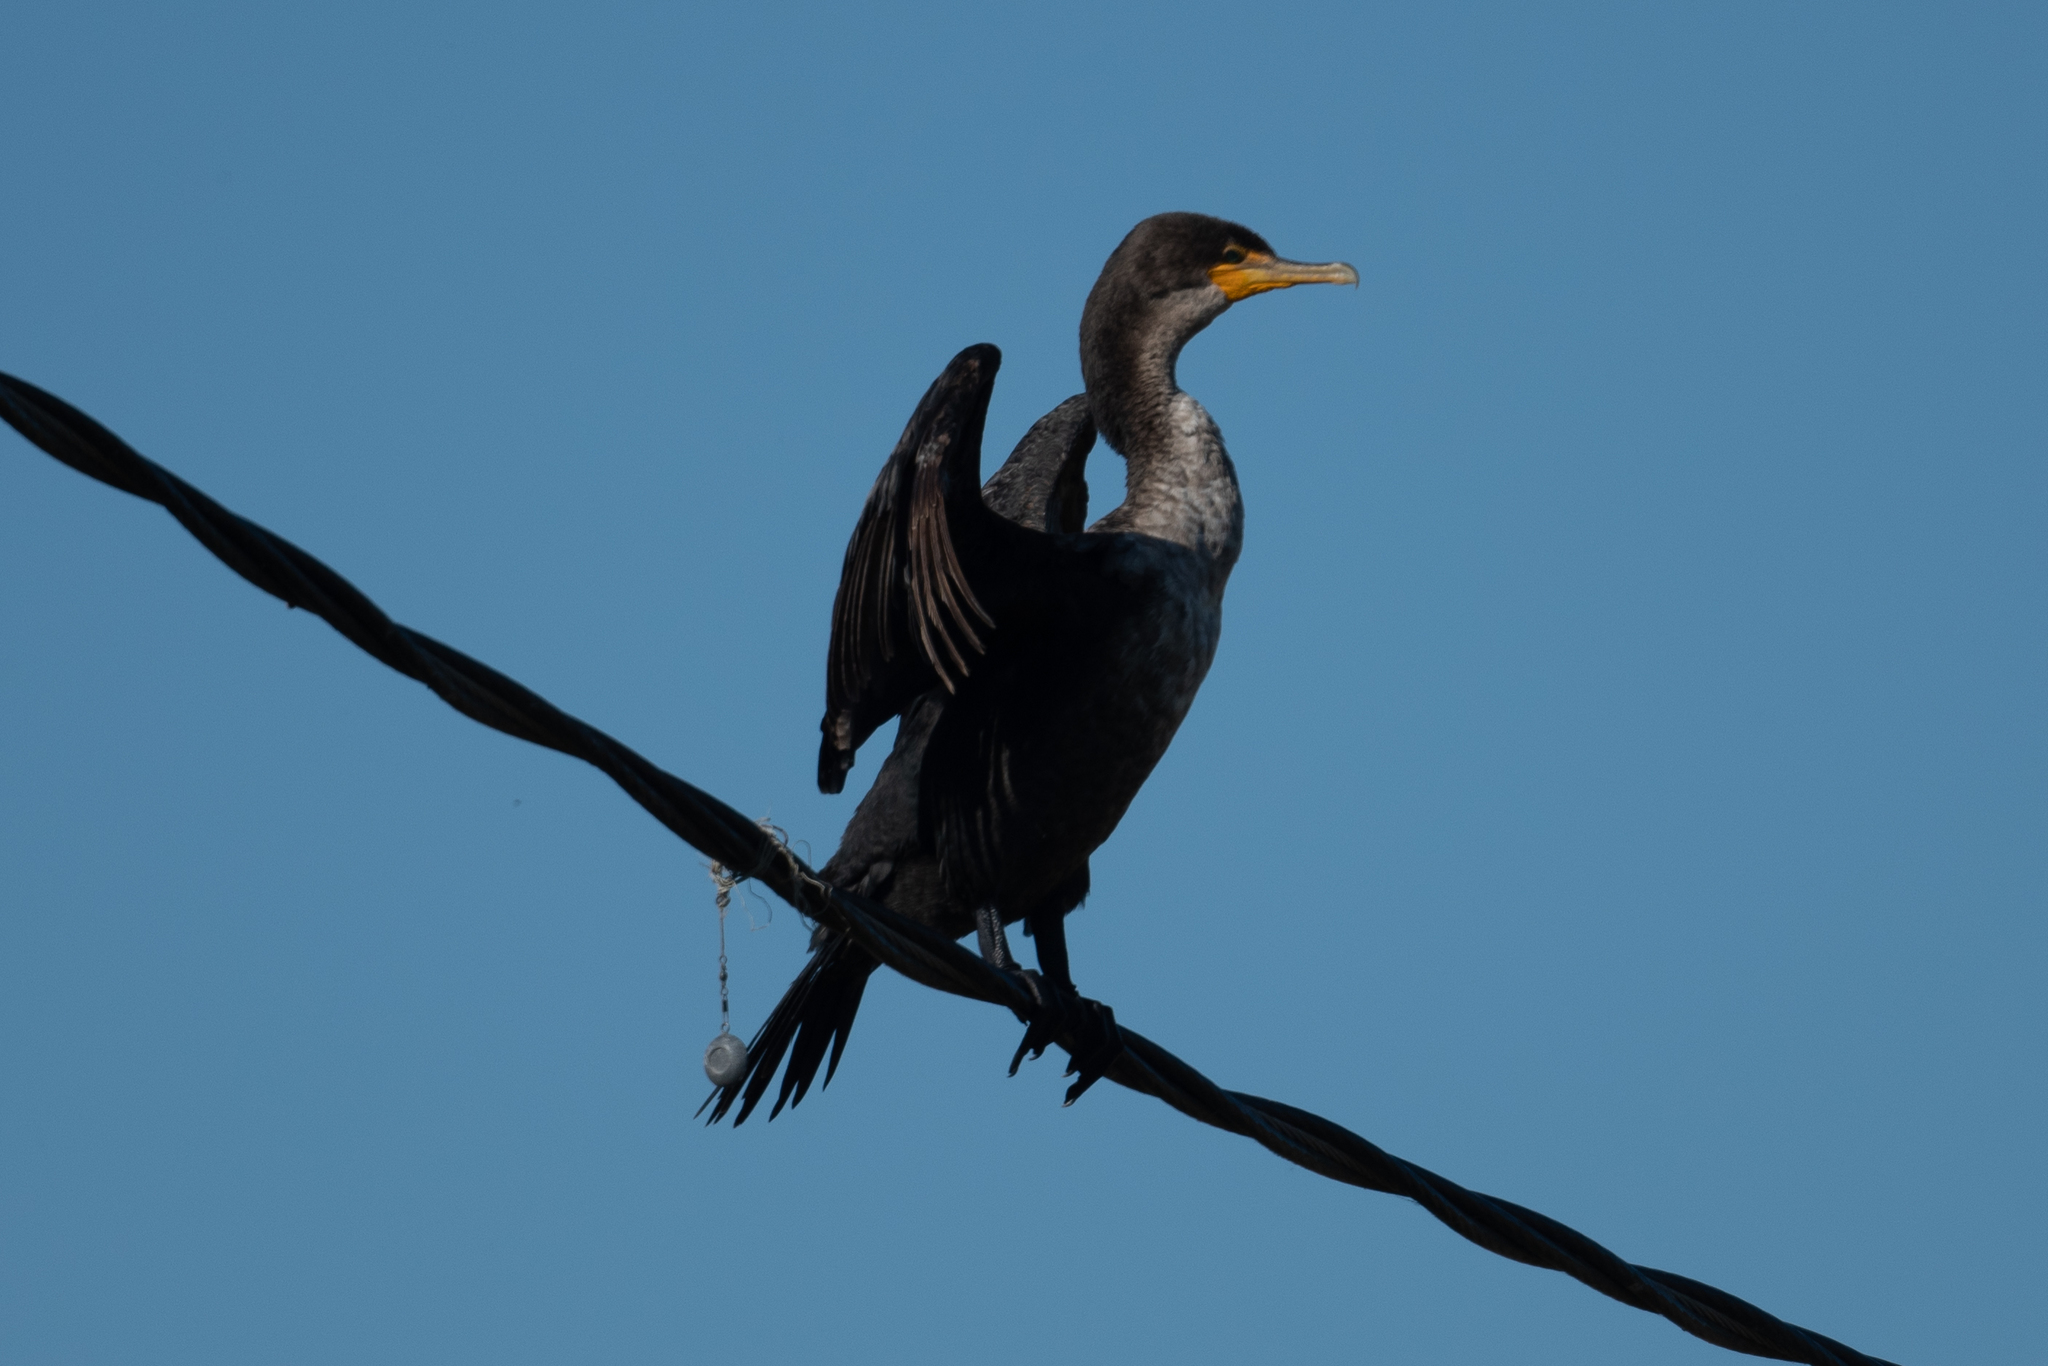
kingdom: Animalia
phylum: Chordata
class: Aves
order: Suliformes
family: Phalacrocoracidae
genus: Phalacrocorax
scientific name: Phalacrocorax auritus
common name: Double-crested cormorant
